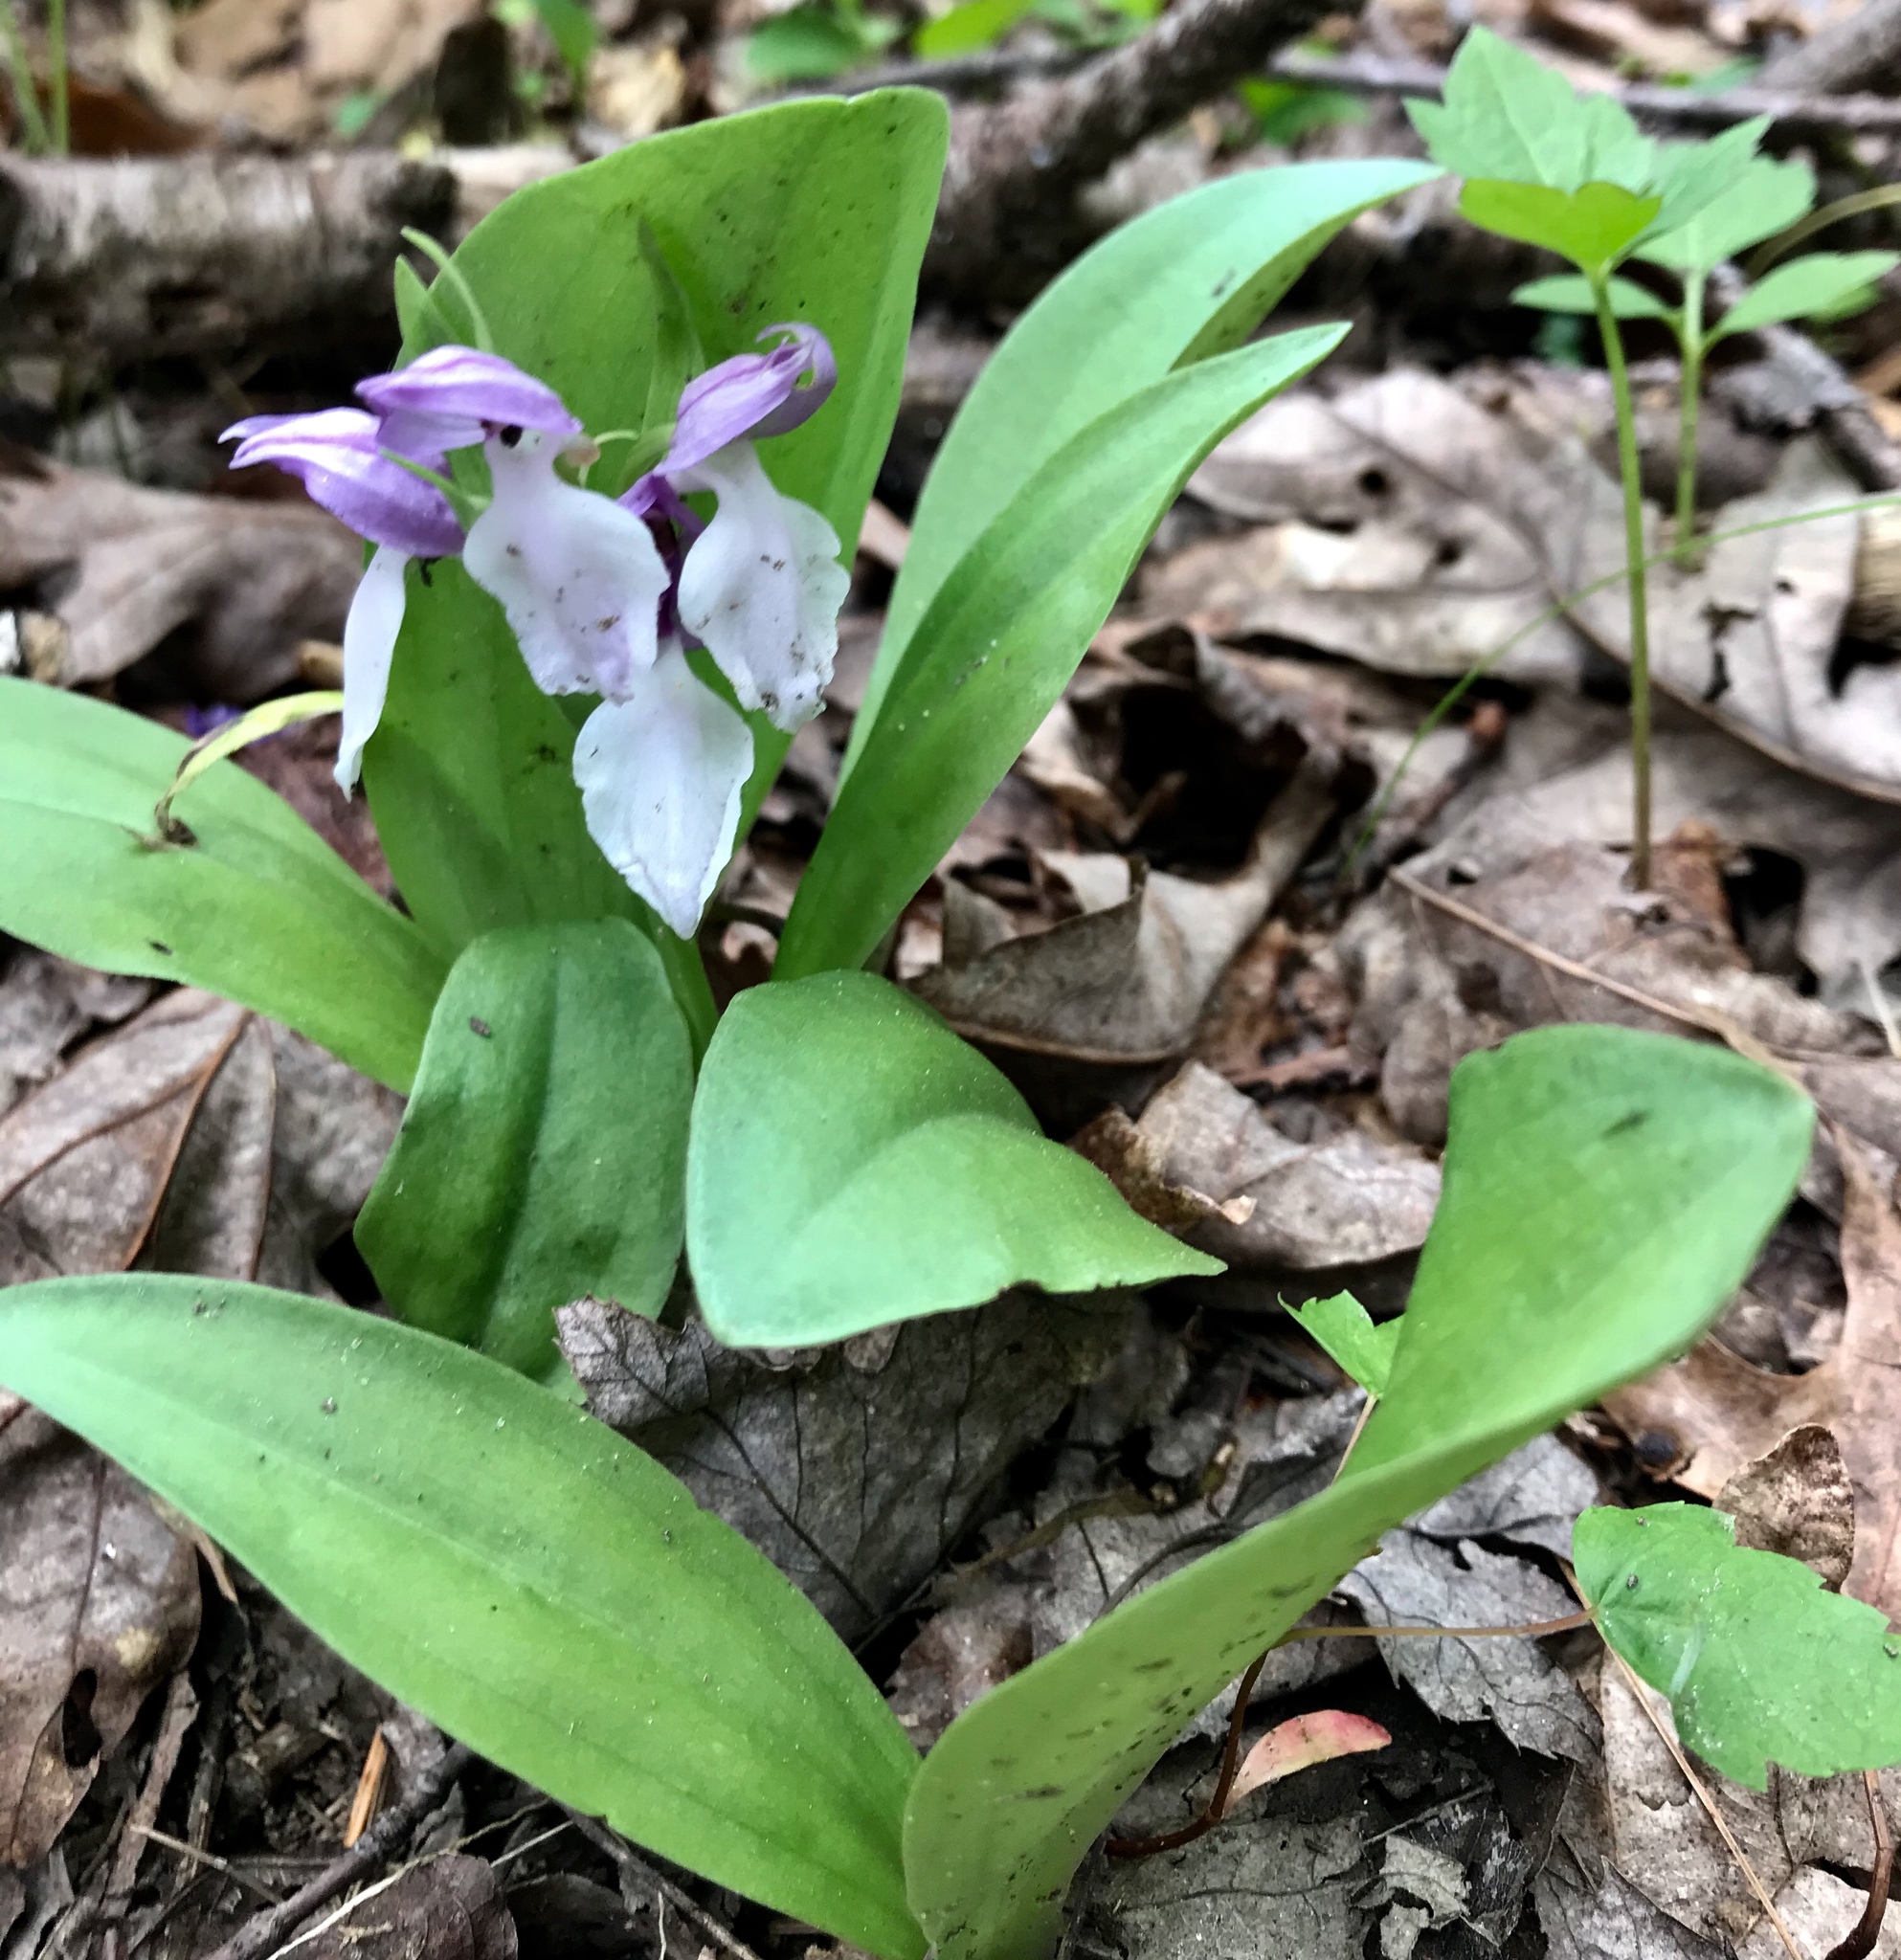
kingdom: Plantae
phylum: Tracheophyta
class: Liliopsida
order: Asparagales
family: Orchidaceae
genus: Galearis
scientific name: Galearis spectabilis
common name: Purple-hooded orchis
